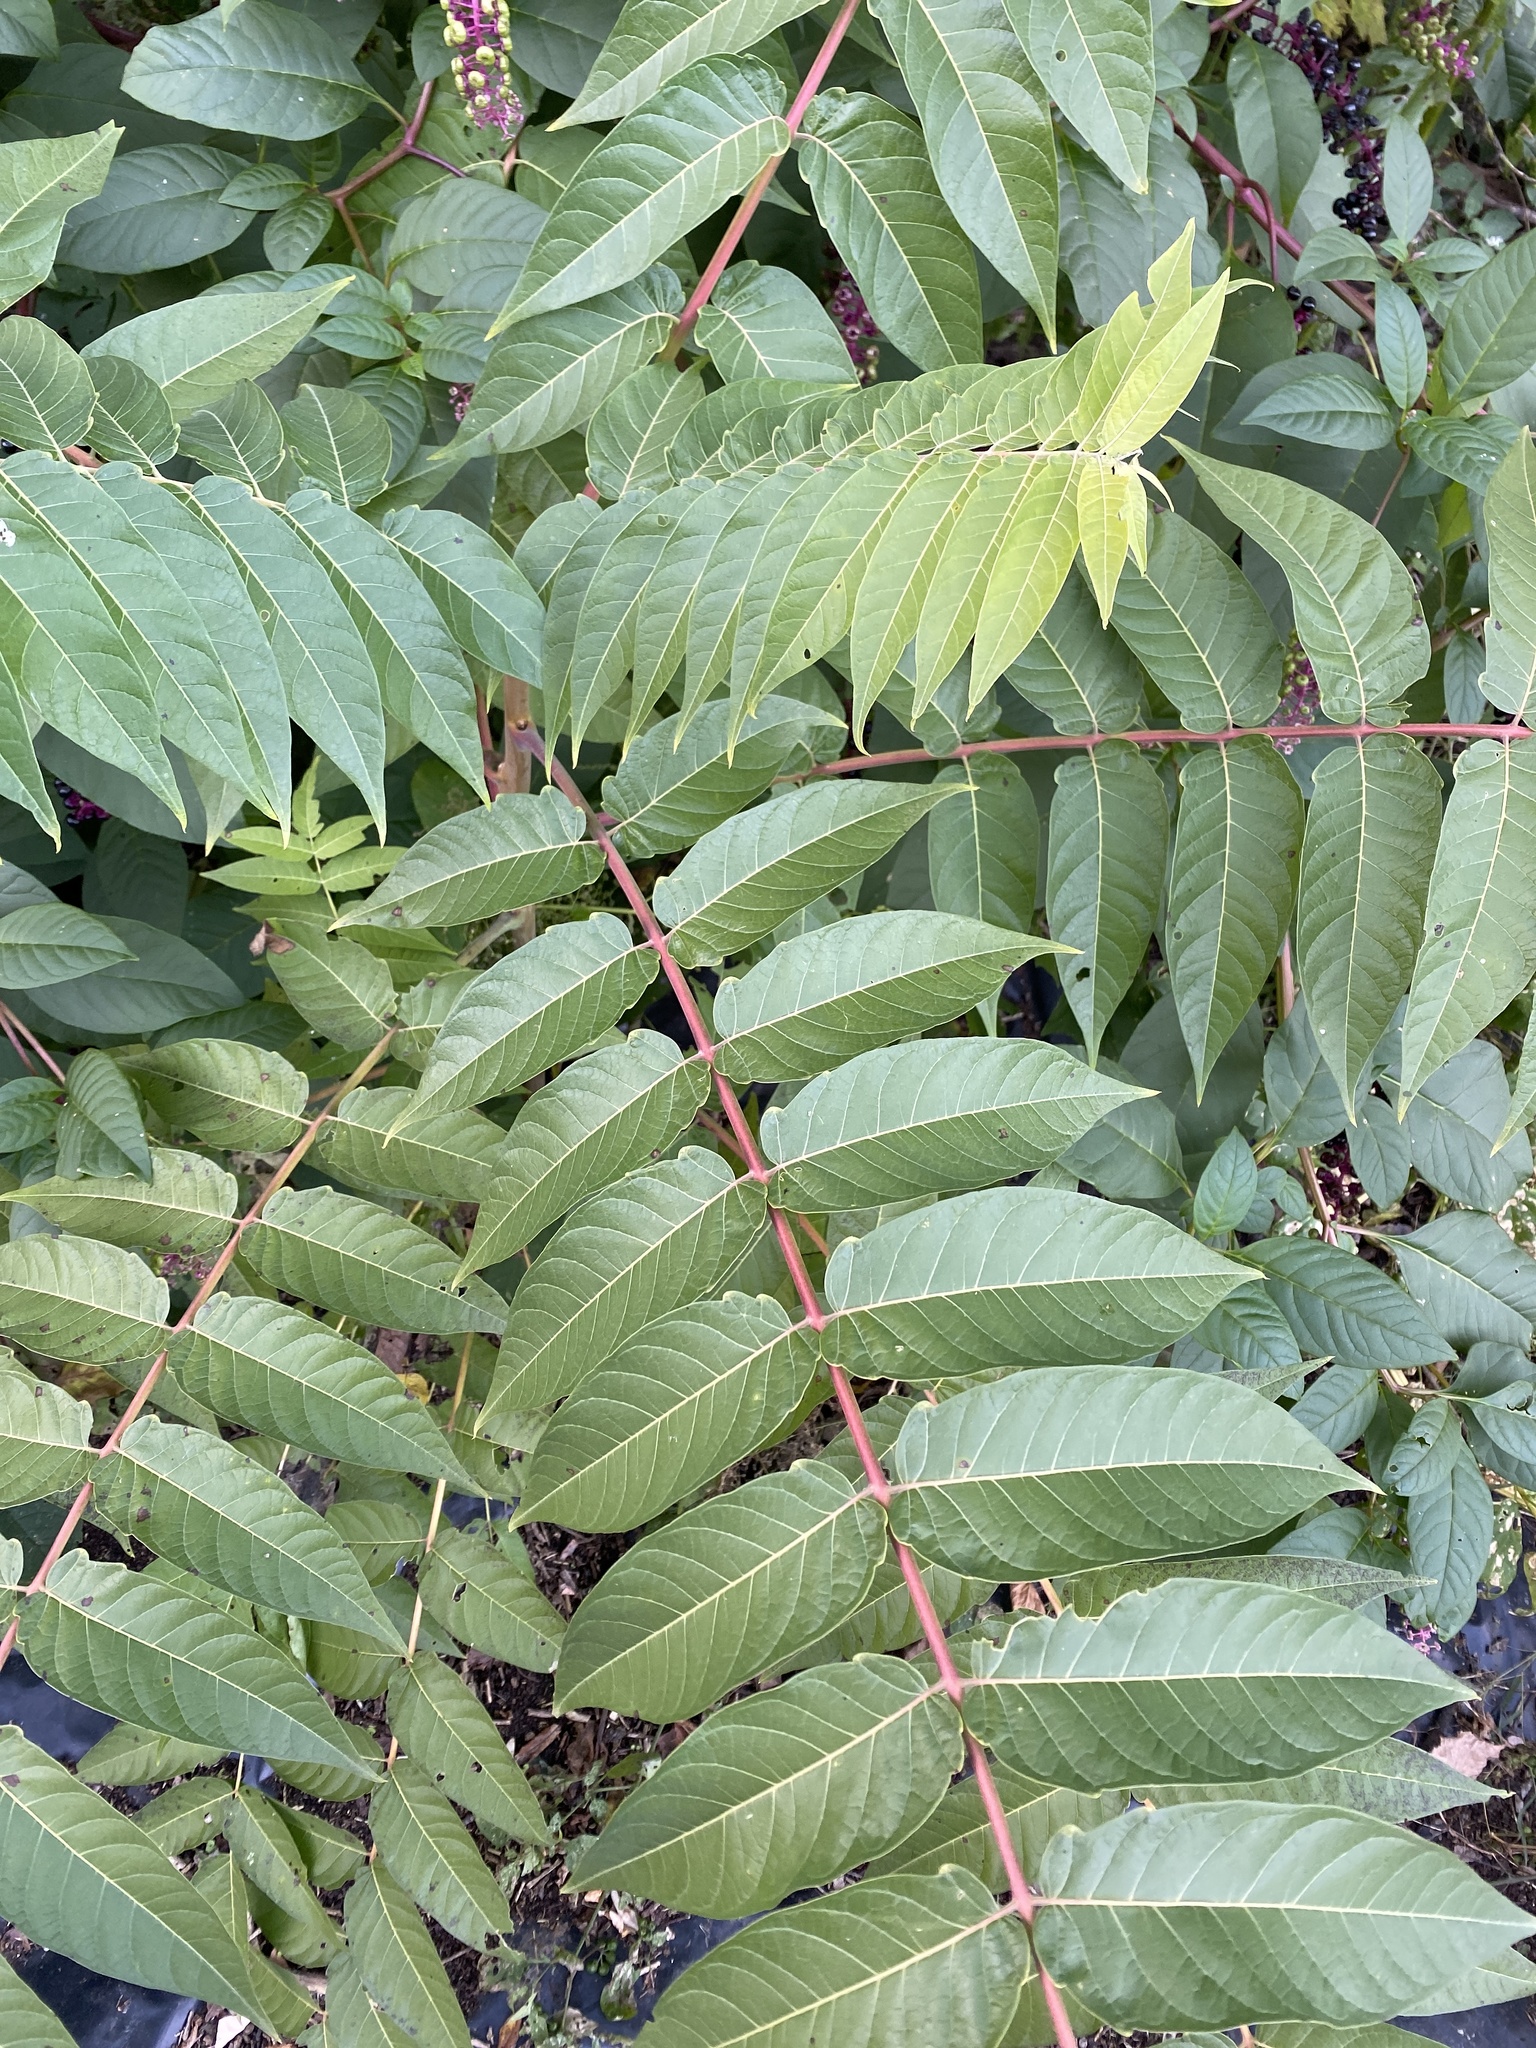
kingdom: Plantae
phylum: Tracheophyta
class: Magnoliopsida
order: Sapindales
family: Simaroubaceae
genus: Ailanthus
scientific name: Ailanthus altissima
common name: Tree-of-heaven
